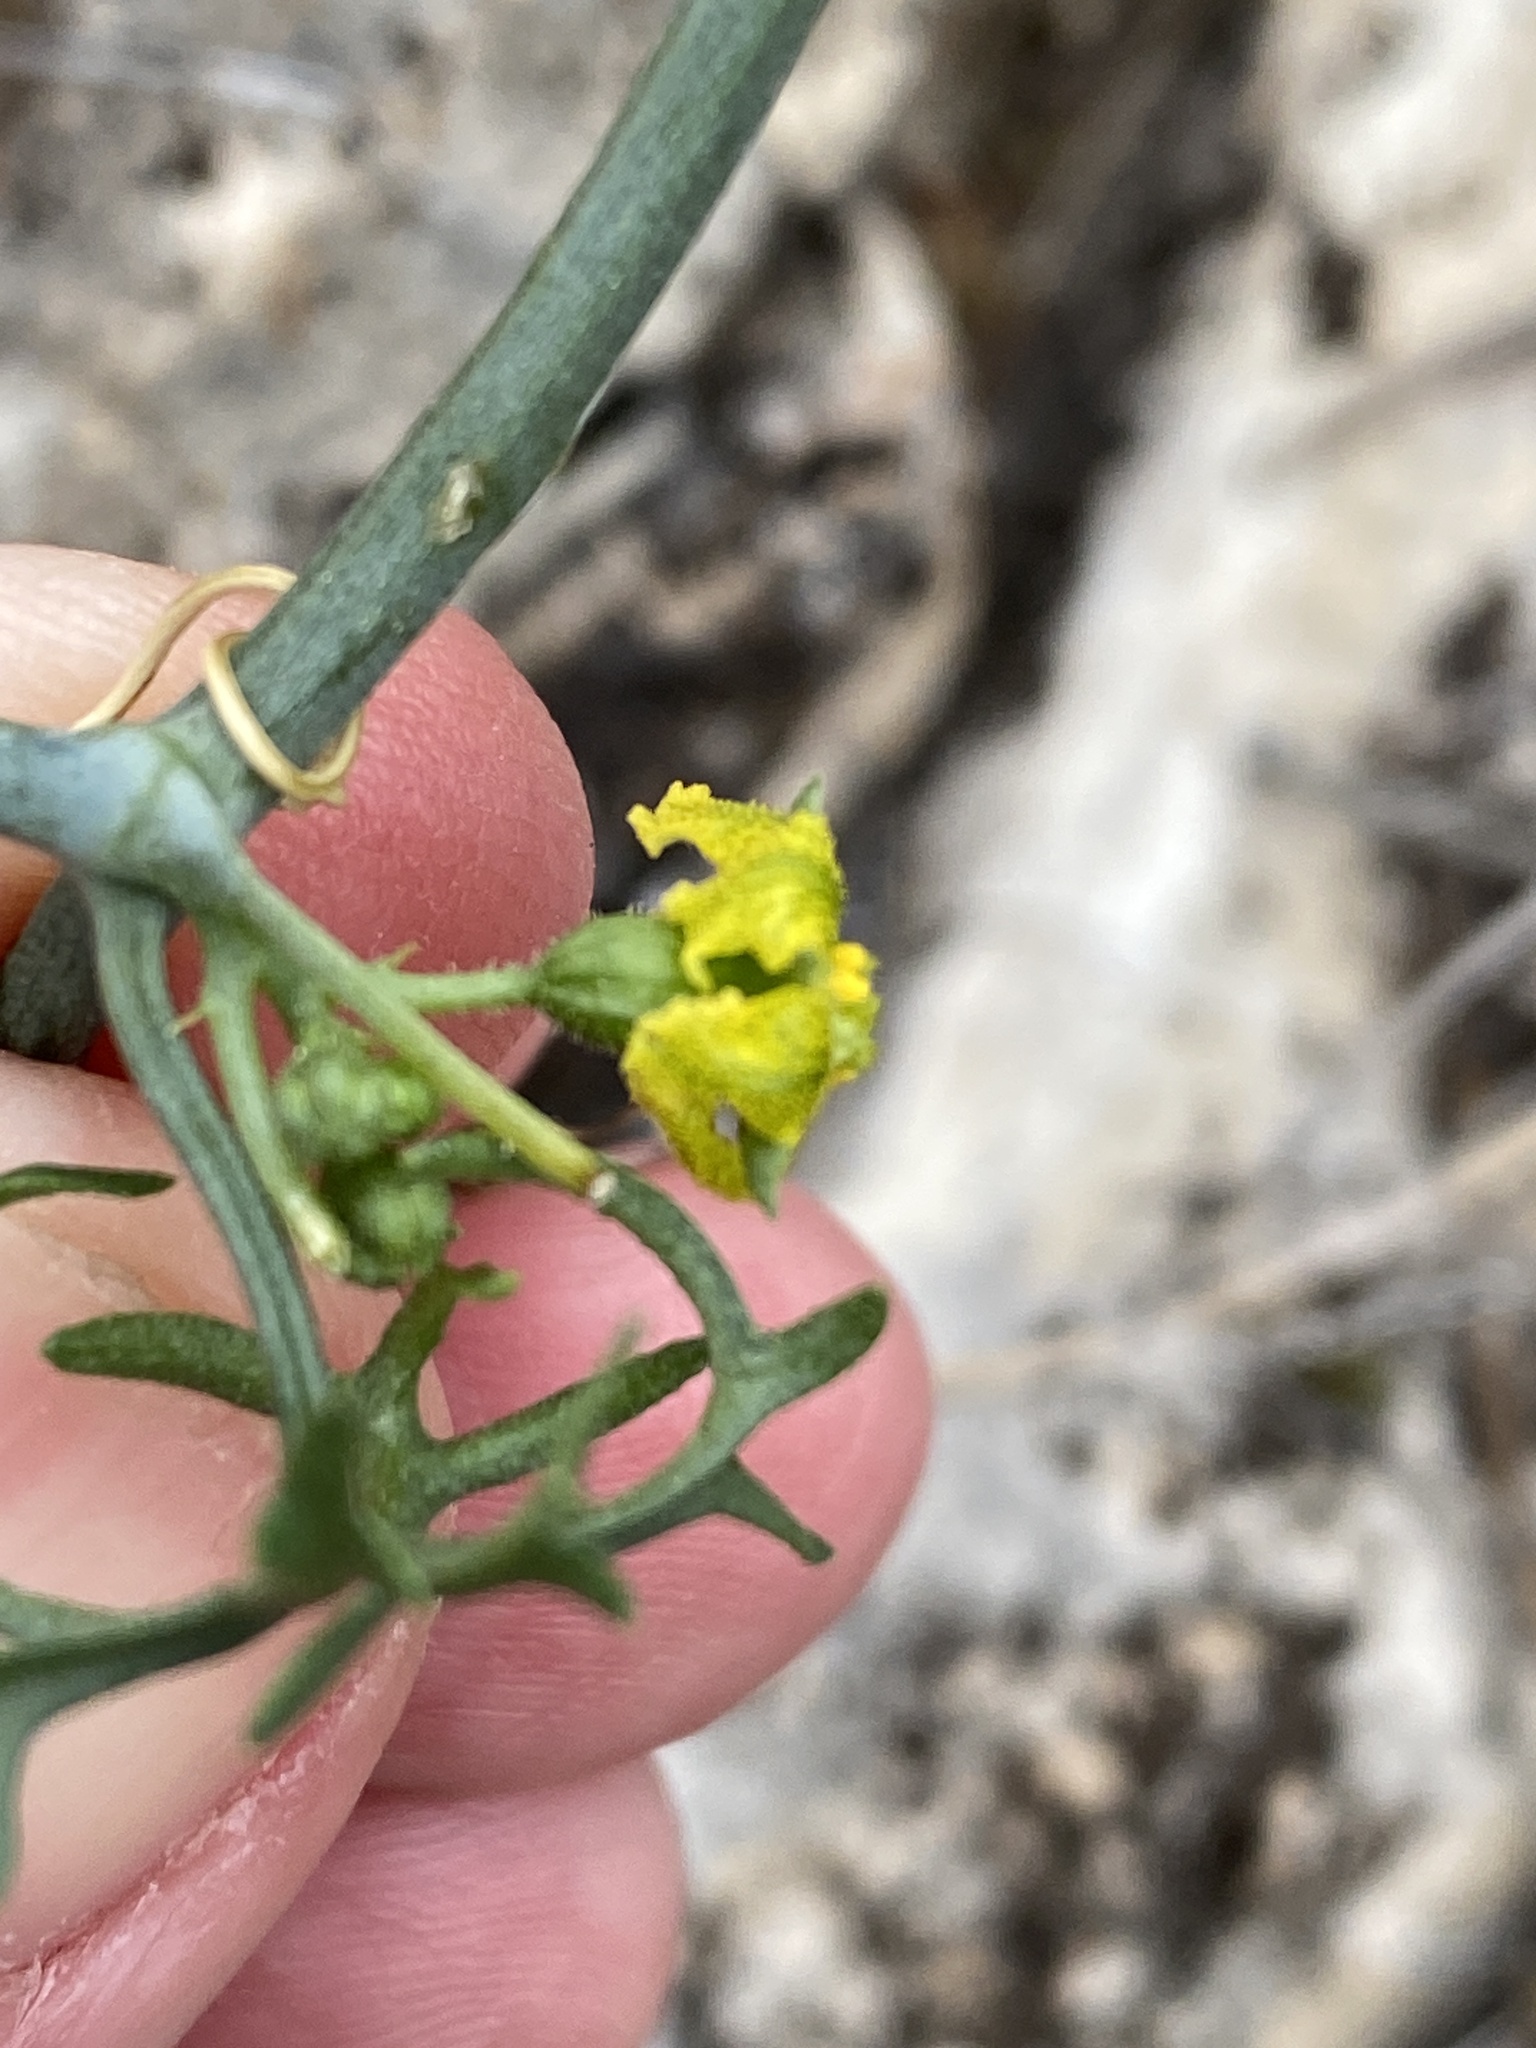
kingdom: Plantae
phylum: Tracheophyta
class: Magnoliopsida
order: Cucurbitales
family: Cucurbitaceae
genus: Ibervillea
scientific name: Ibervillea tenuisecta
